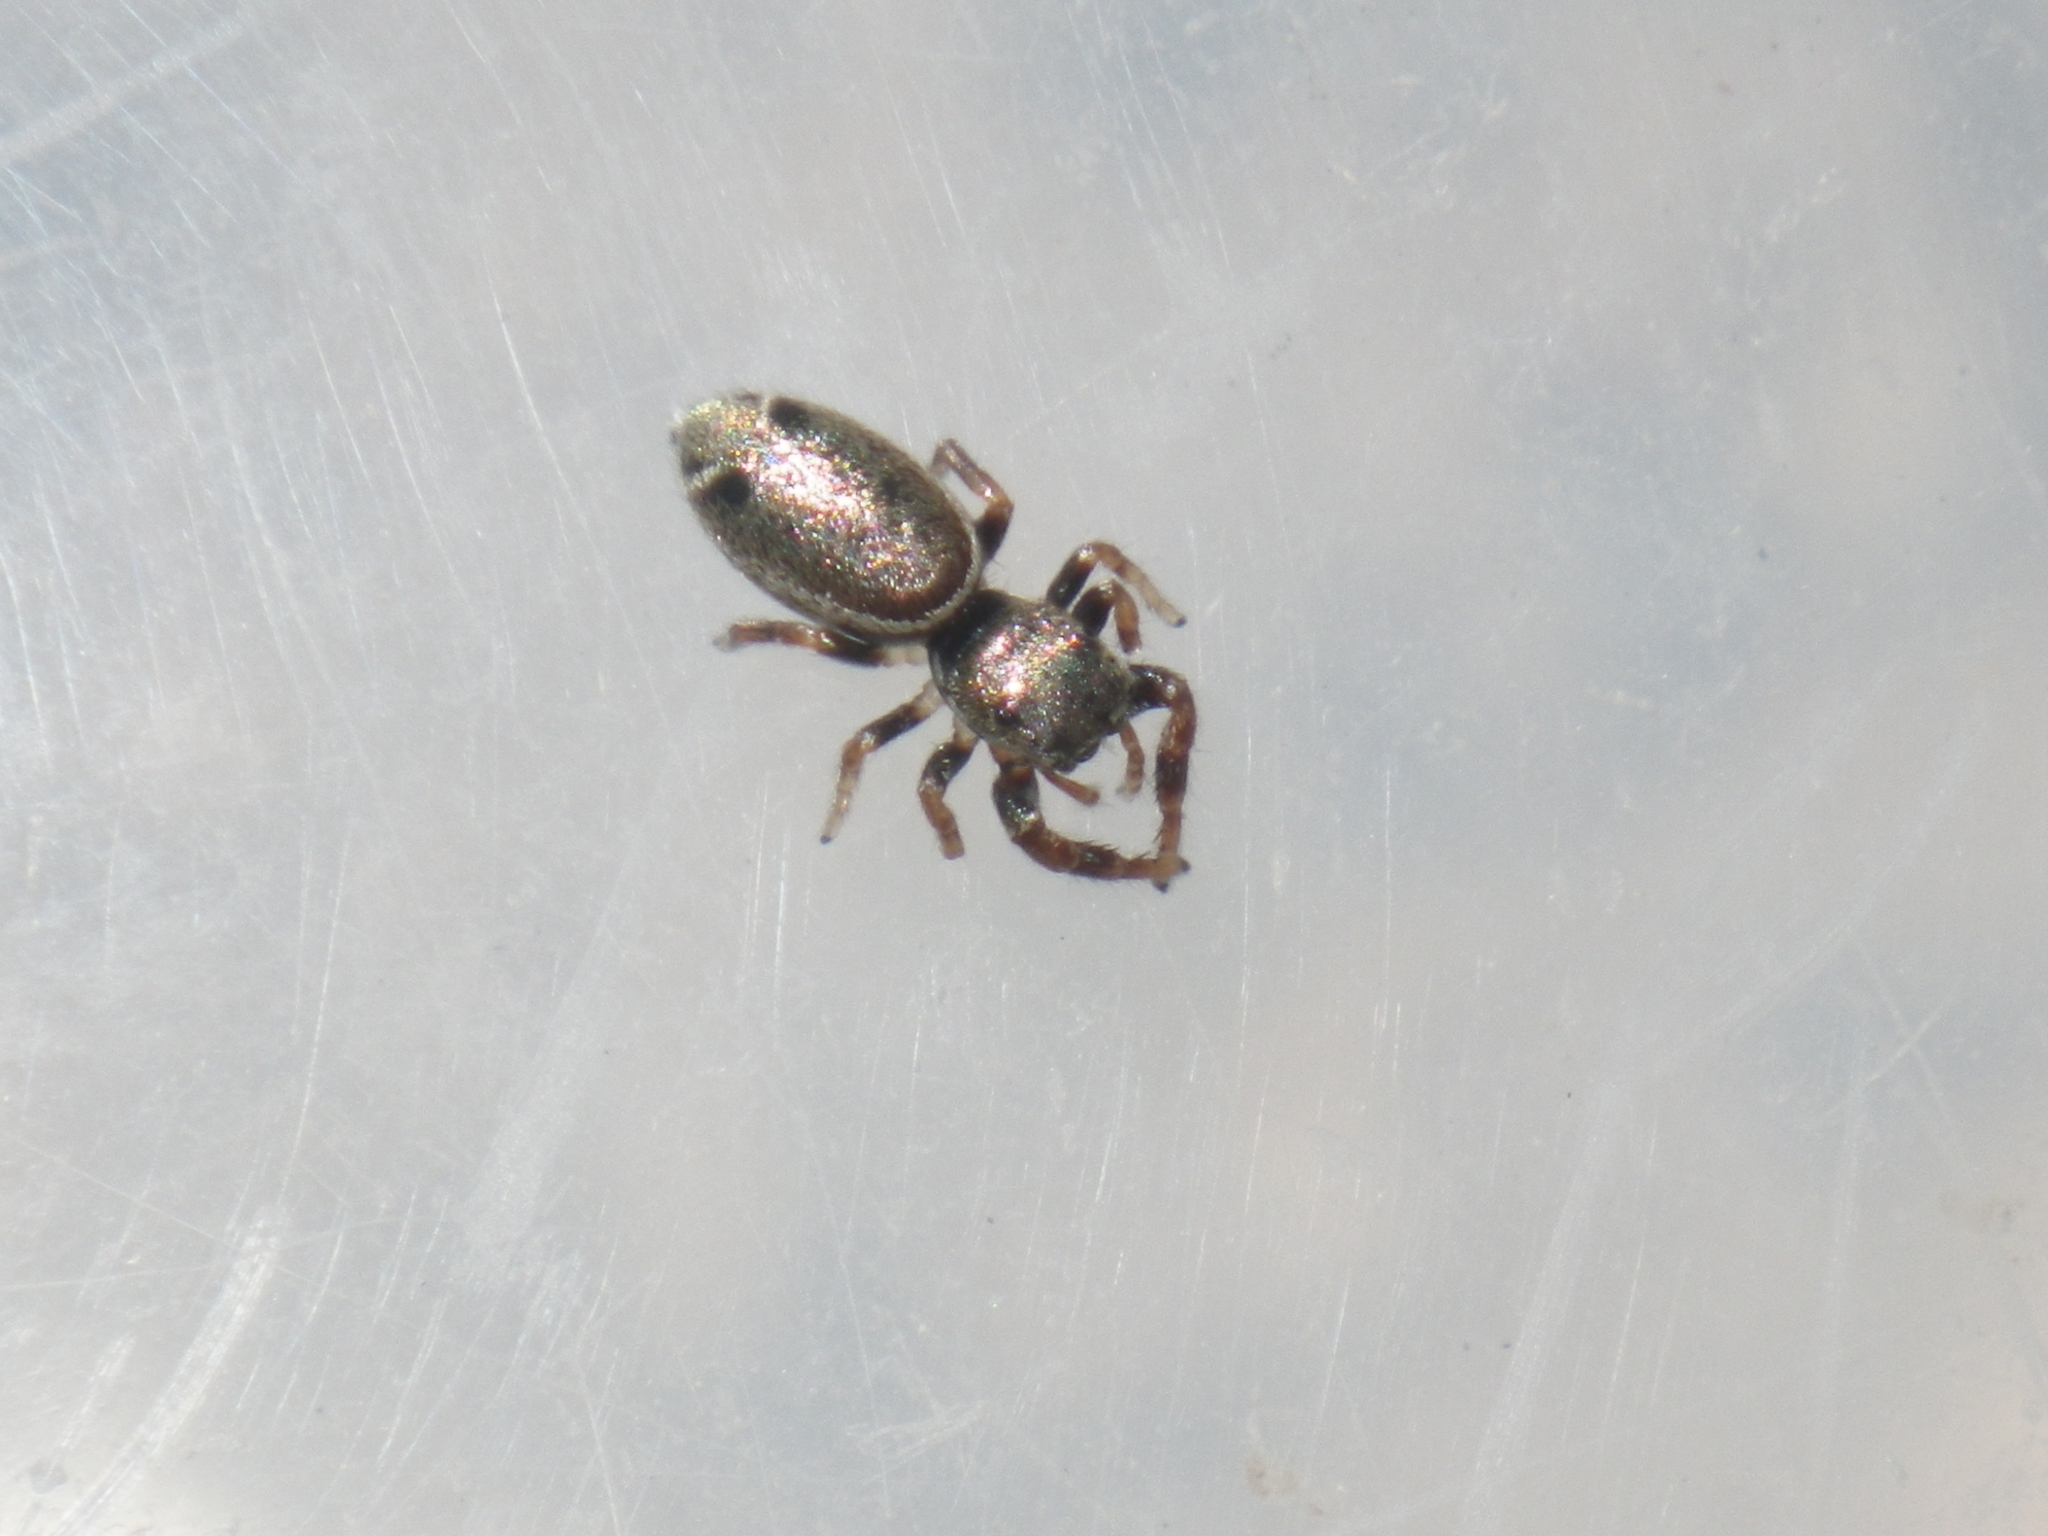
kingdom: Animalia
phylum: Arthropoda
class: Arachnida
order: Araneae
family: Salticidae
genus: Sassacus
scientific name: Sassacus vitis
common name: Jumping spiders
